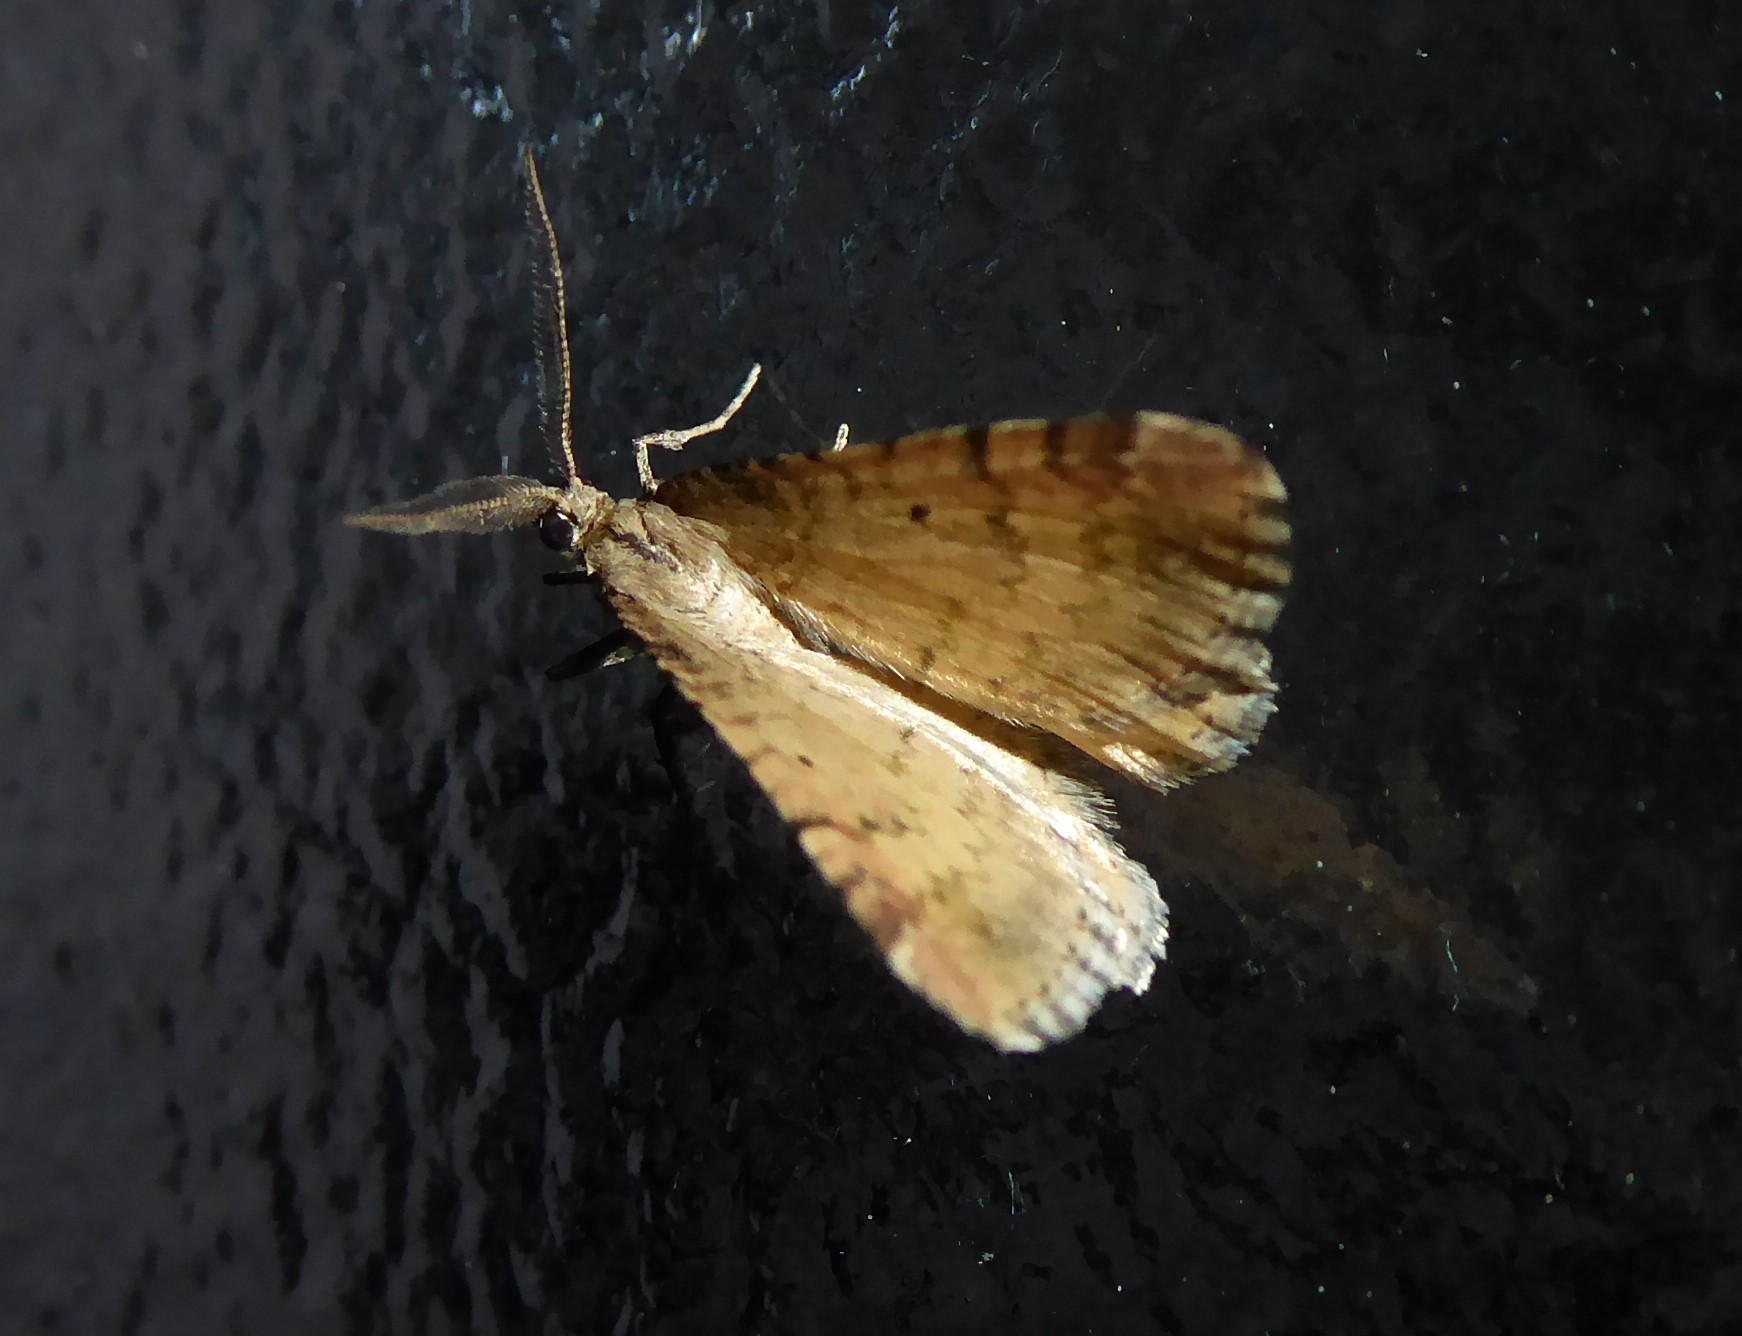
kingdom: Animalia
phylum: Arthropoda
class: Insecta
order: Lepidoptera
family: Geometridae
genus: Asaphodes
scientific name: Asaphodes aegrota
